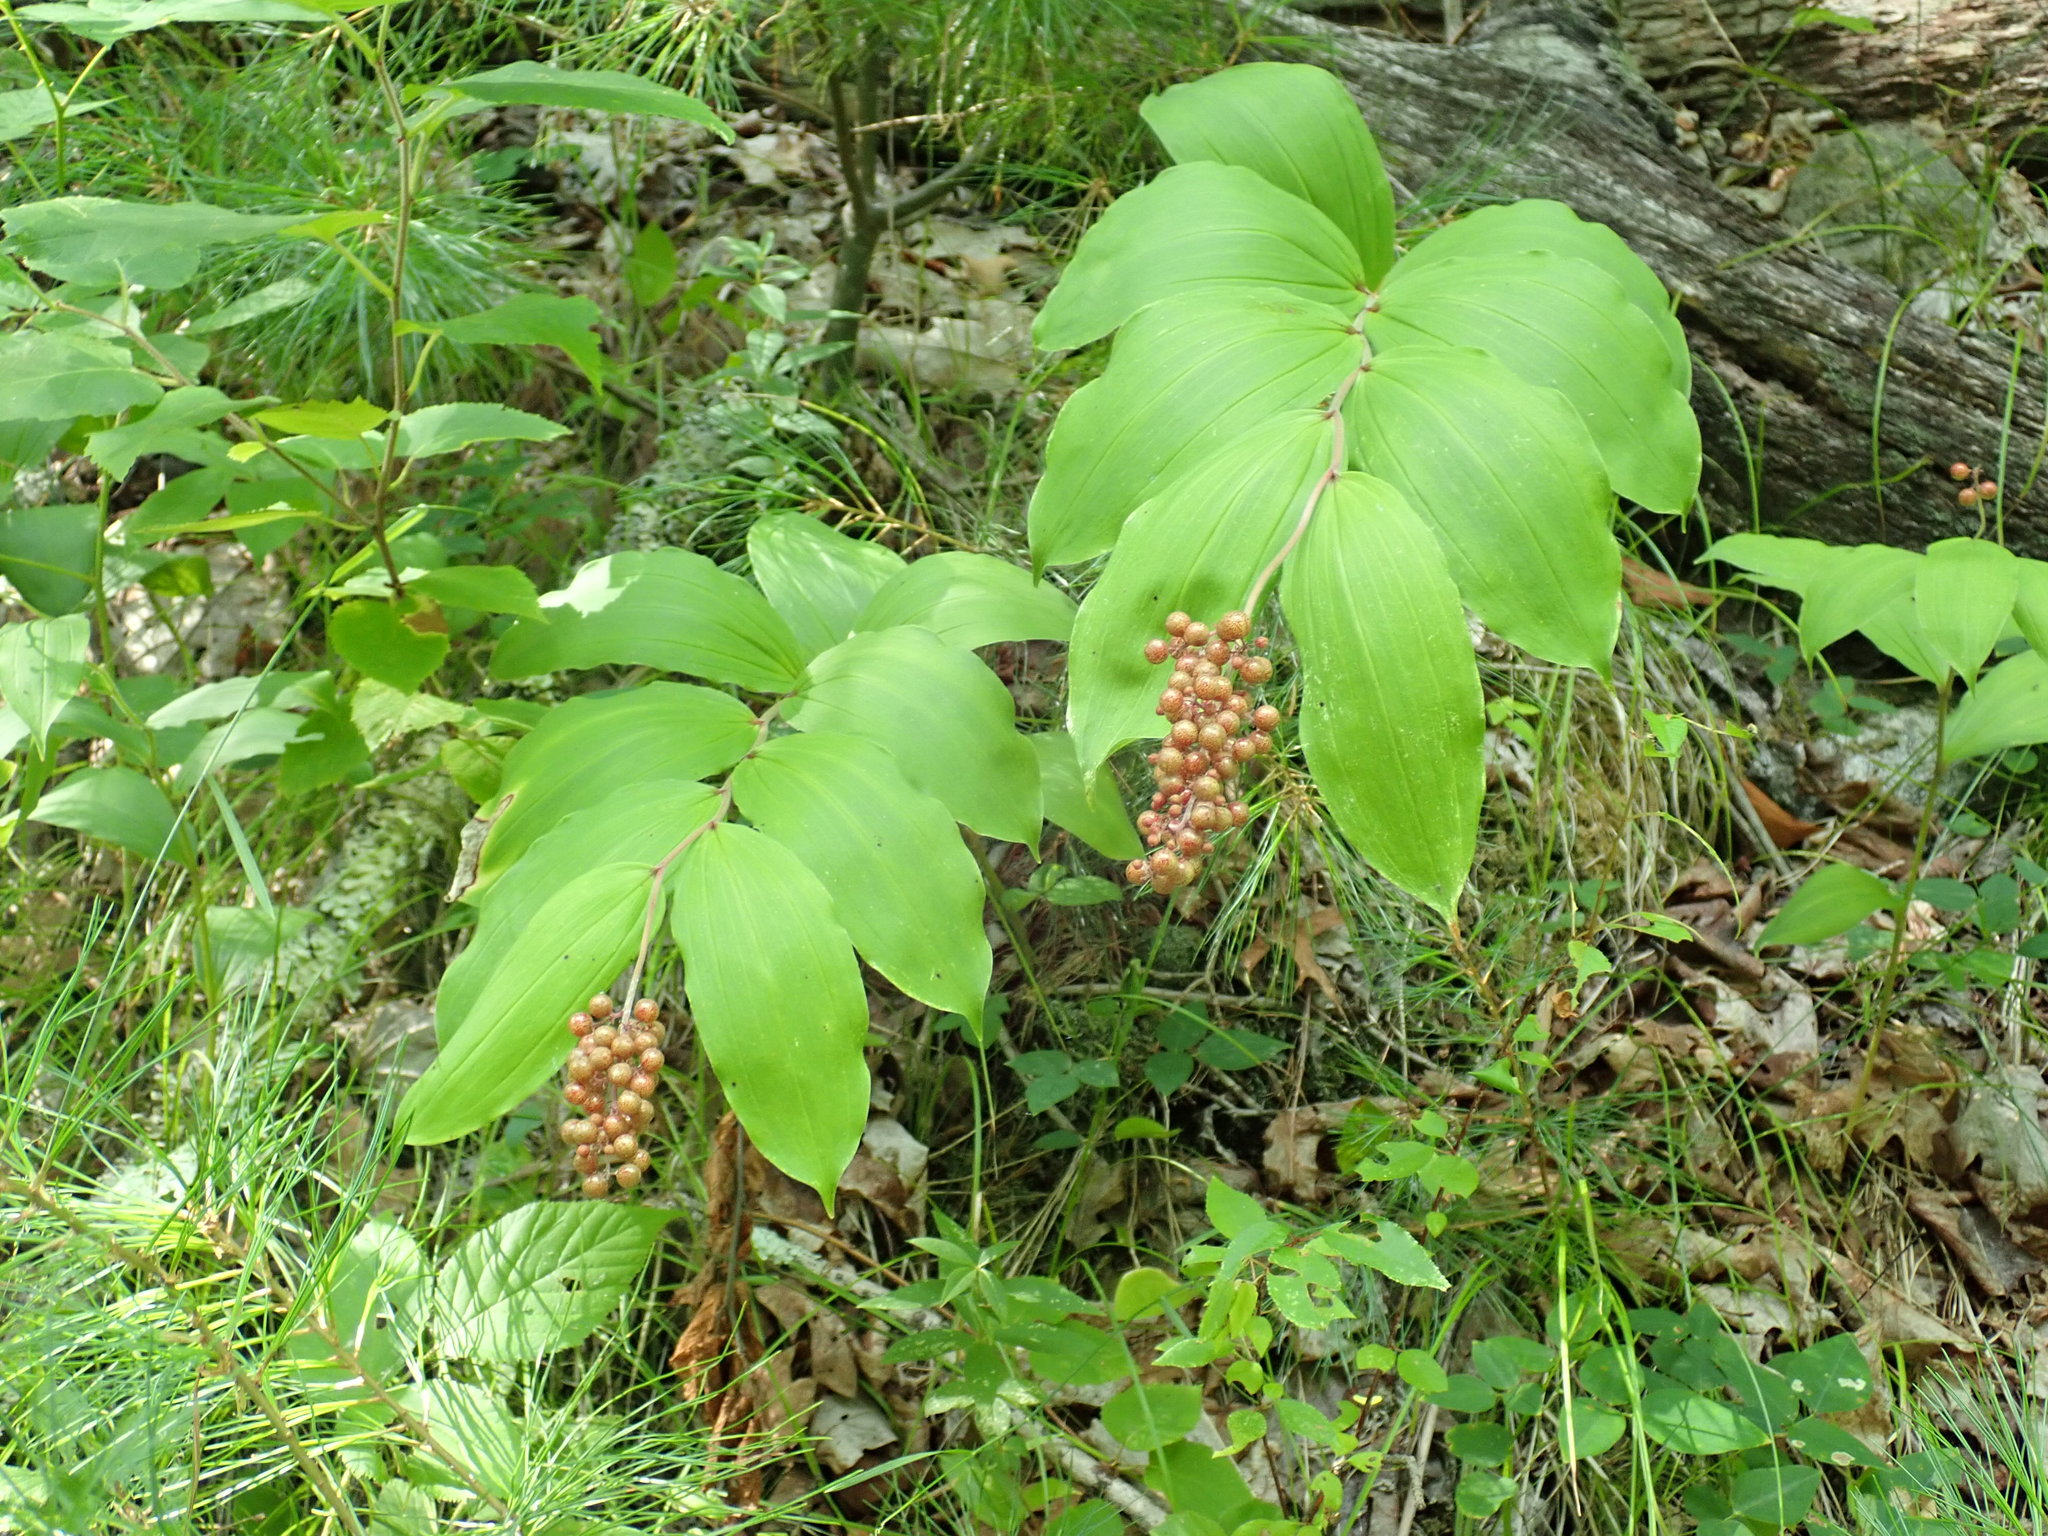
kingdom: Plantae
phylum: Tracheophyta
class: Liliopsida
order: Asparagales
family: Asparagaceae
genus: Maianthemum
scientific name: Maianthemum racemosum
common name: False spikenard
